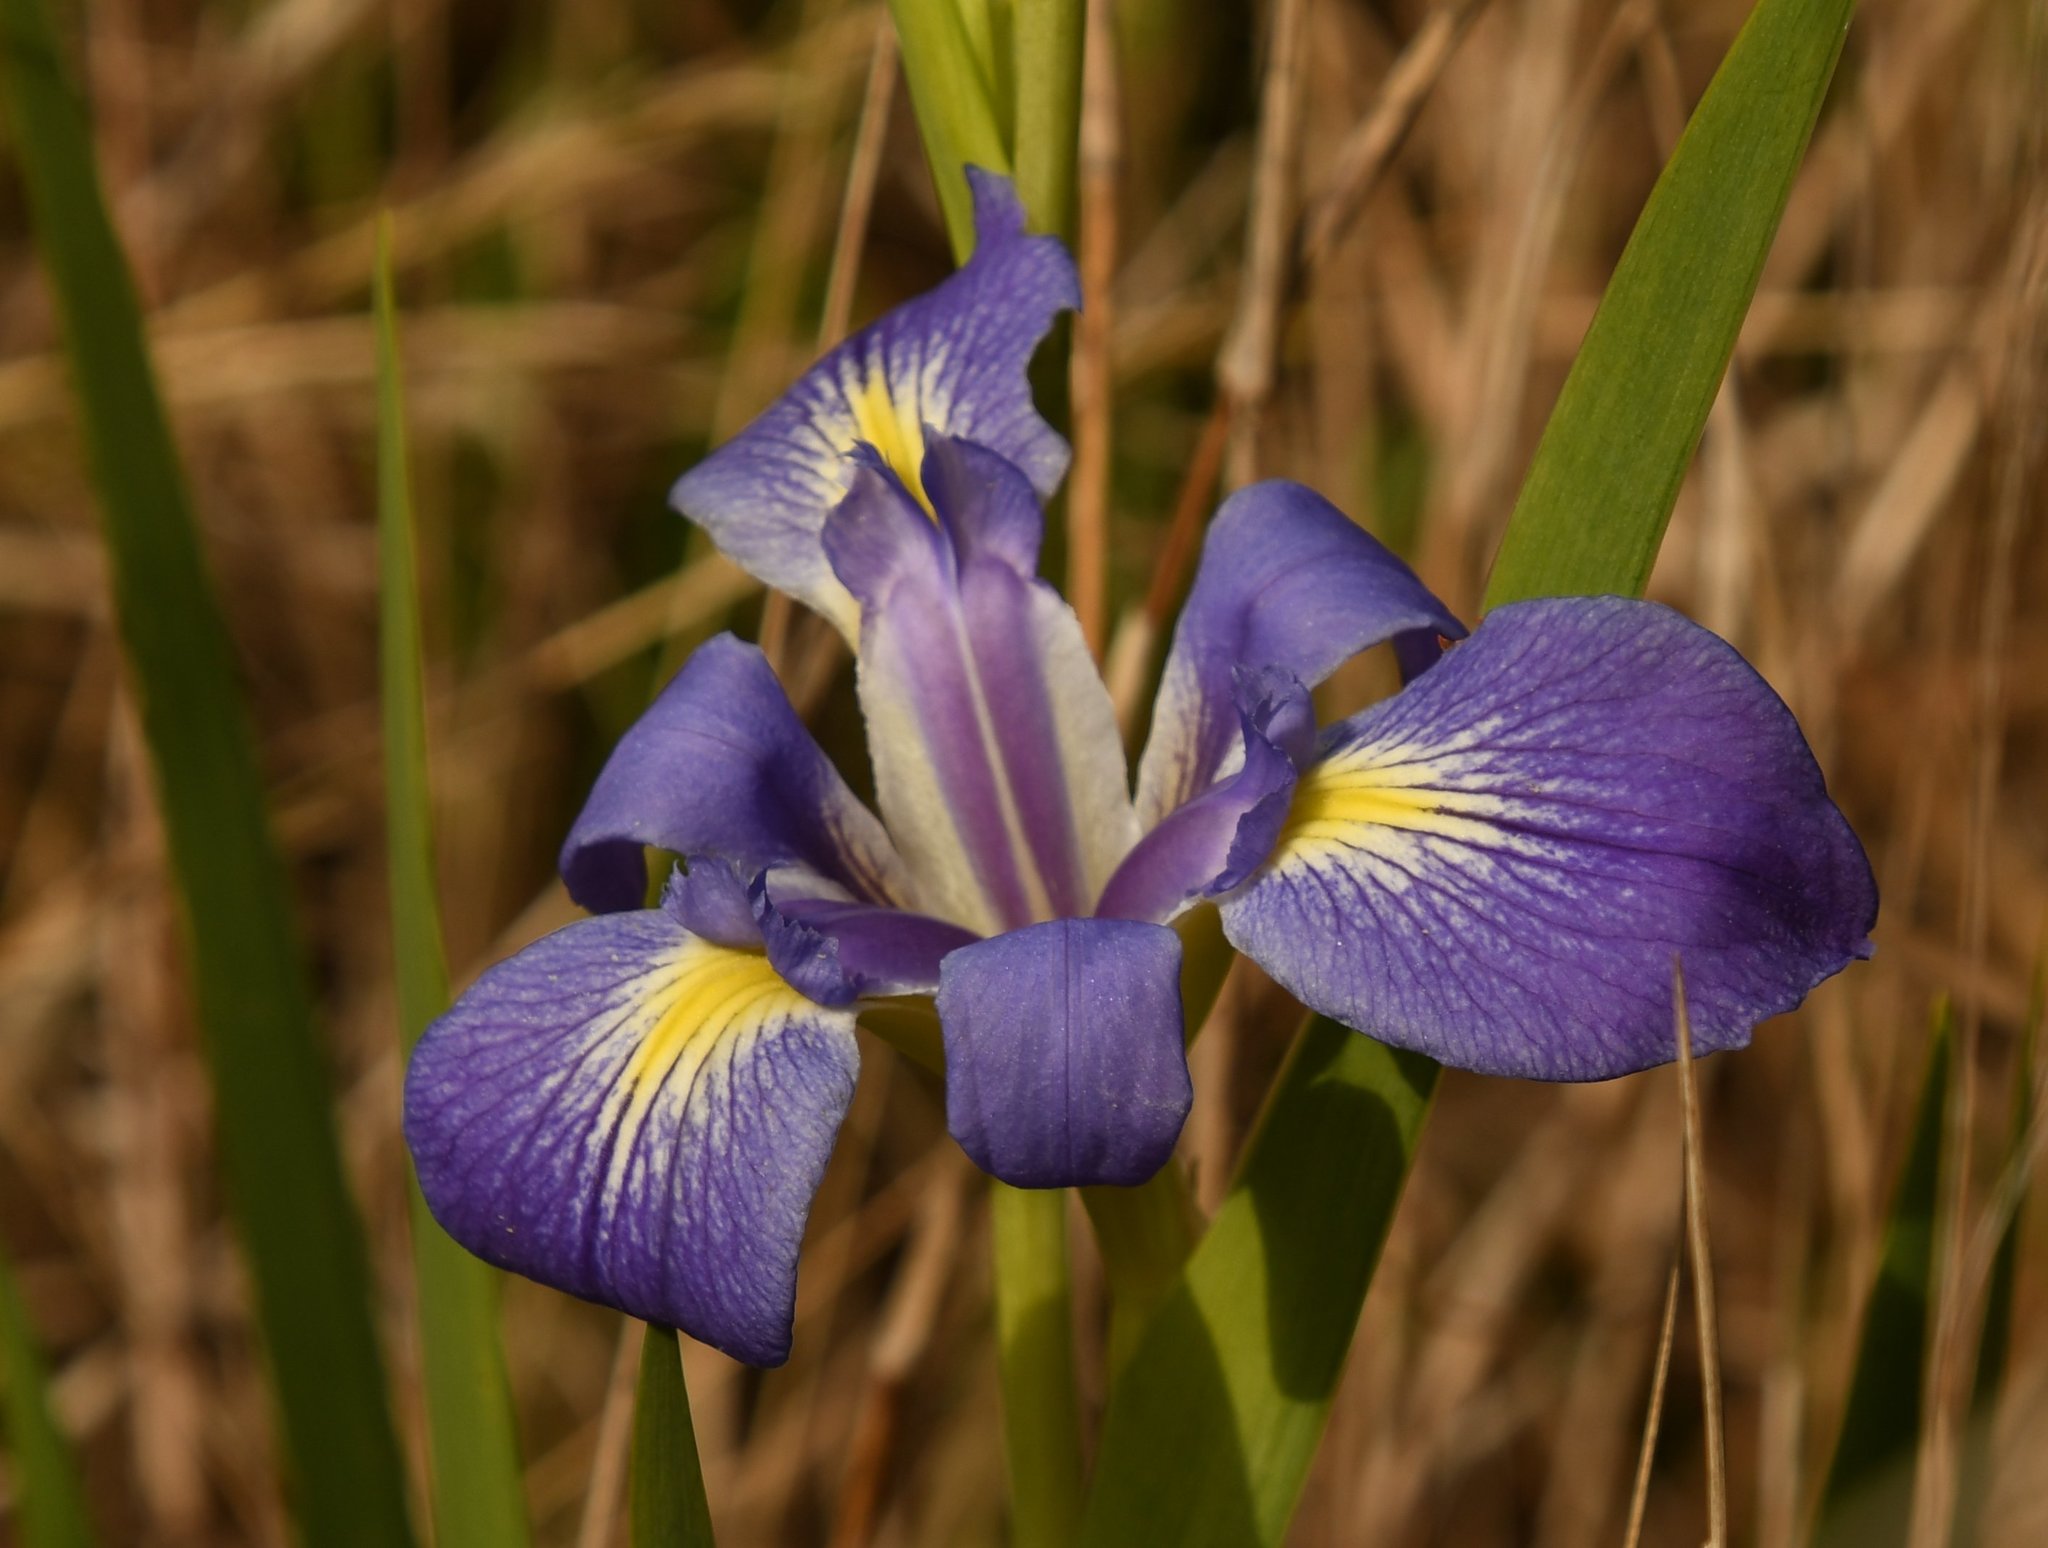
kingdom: Plantae
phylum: Tracheophyta
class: Liliopsida
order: Asparagales
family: Iridaceae
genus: Iris
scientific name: Iris savannarum
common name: Prairie iris
